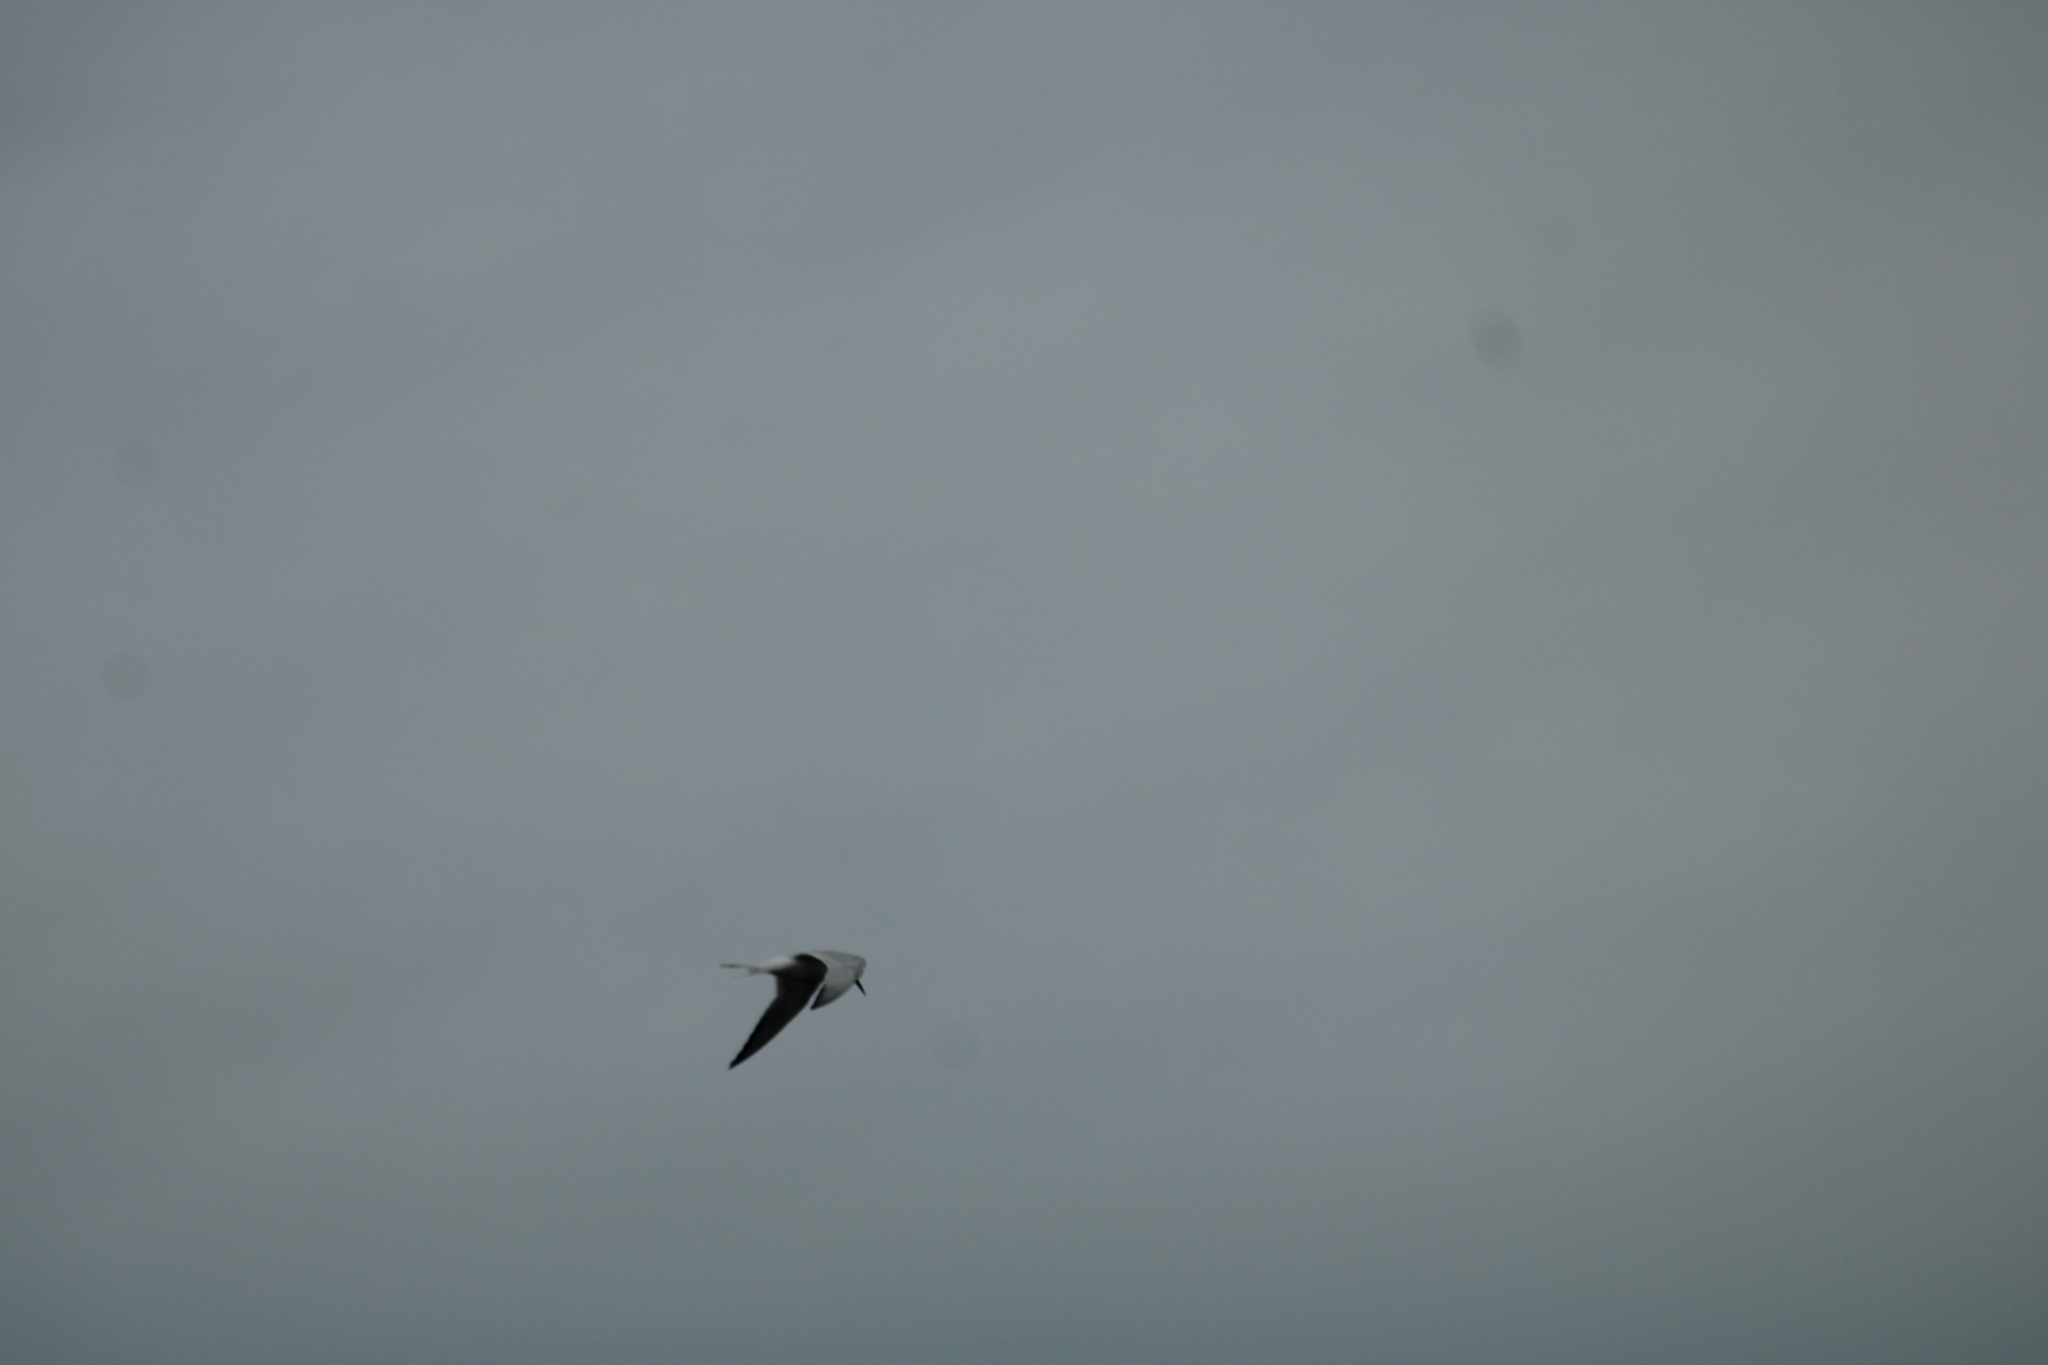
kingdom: Animalia
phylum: Chordata
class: Aves
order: Charadriiformes
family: Laridae
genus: Sterna
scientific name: Sterna forsteri
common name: Forster's tern
